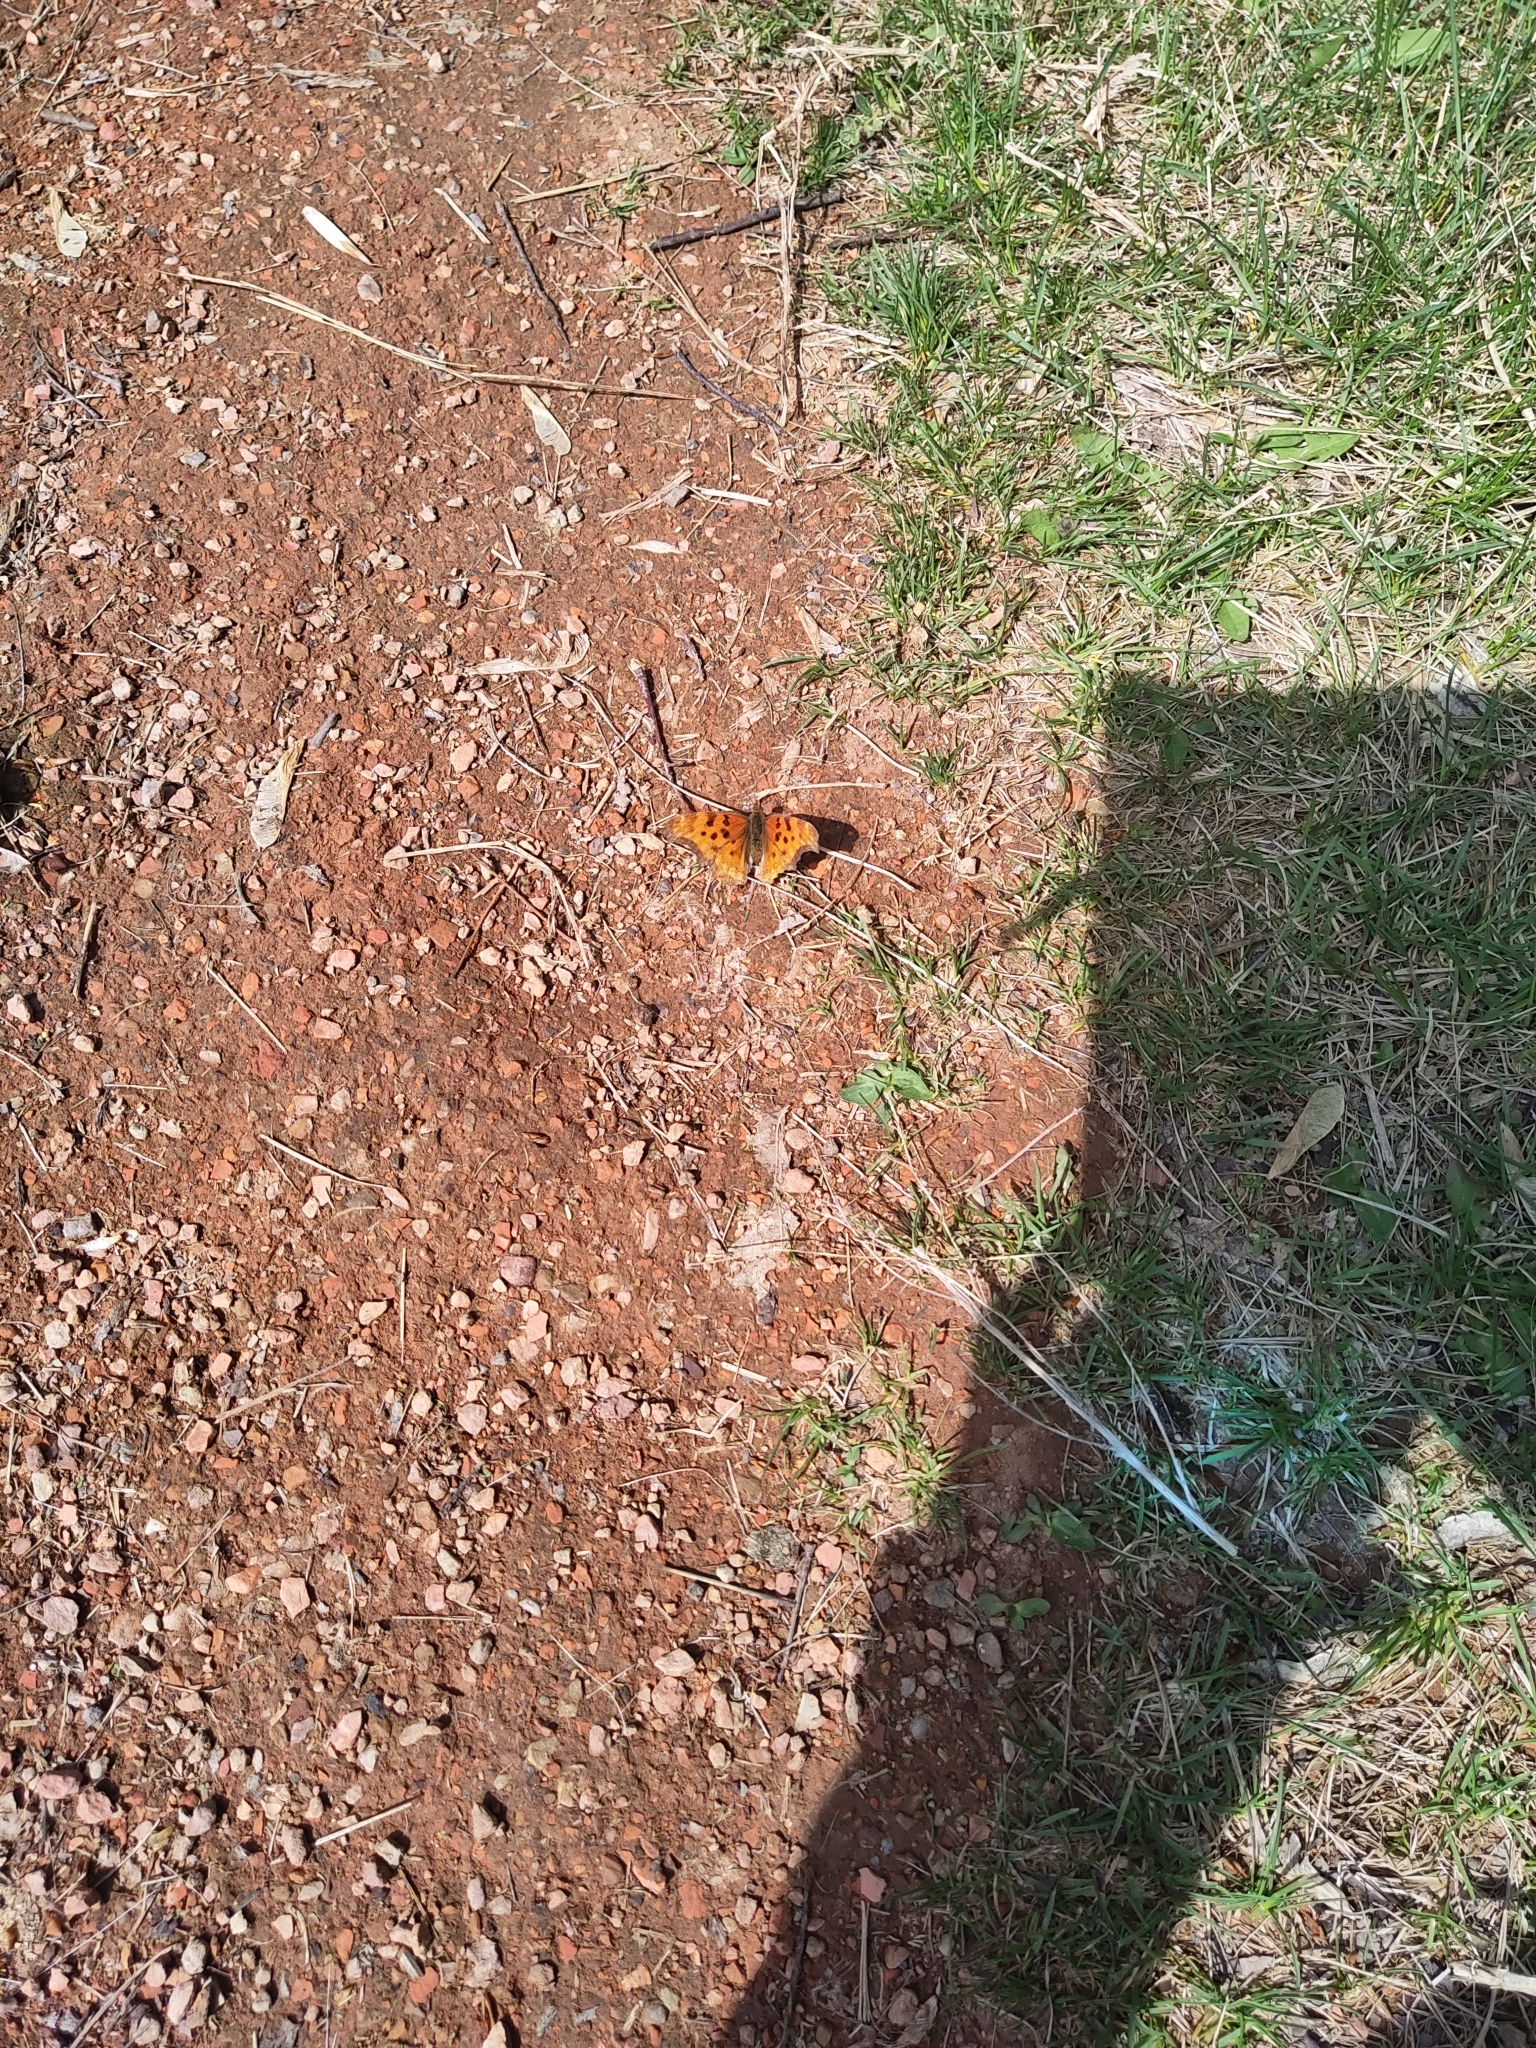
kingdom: Animalia
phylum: Arthropoda
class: Insecta
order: Lepidoptera
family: Nymphalidae
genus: Polygonia
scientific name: Polygonia satyrus
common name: Satyr angle wing
